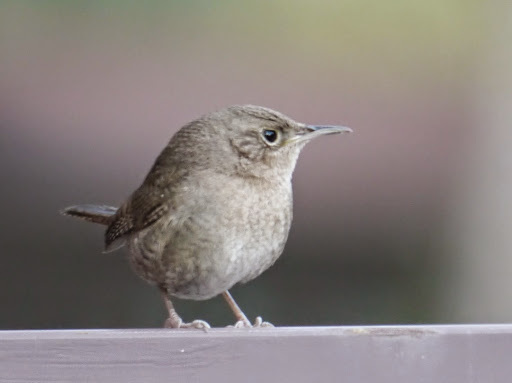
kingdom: Animalia
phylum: Chordata
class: Aves
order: Passeriformes
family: Troglodytidae
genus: Troglodytes
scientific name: Troglodytes aedon
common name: House wren
